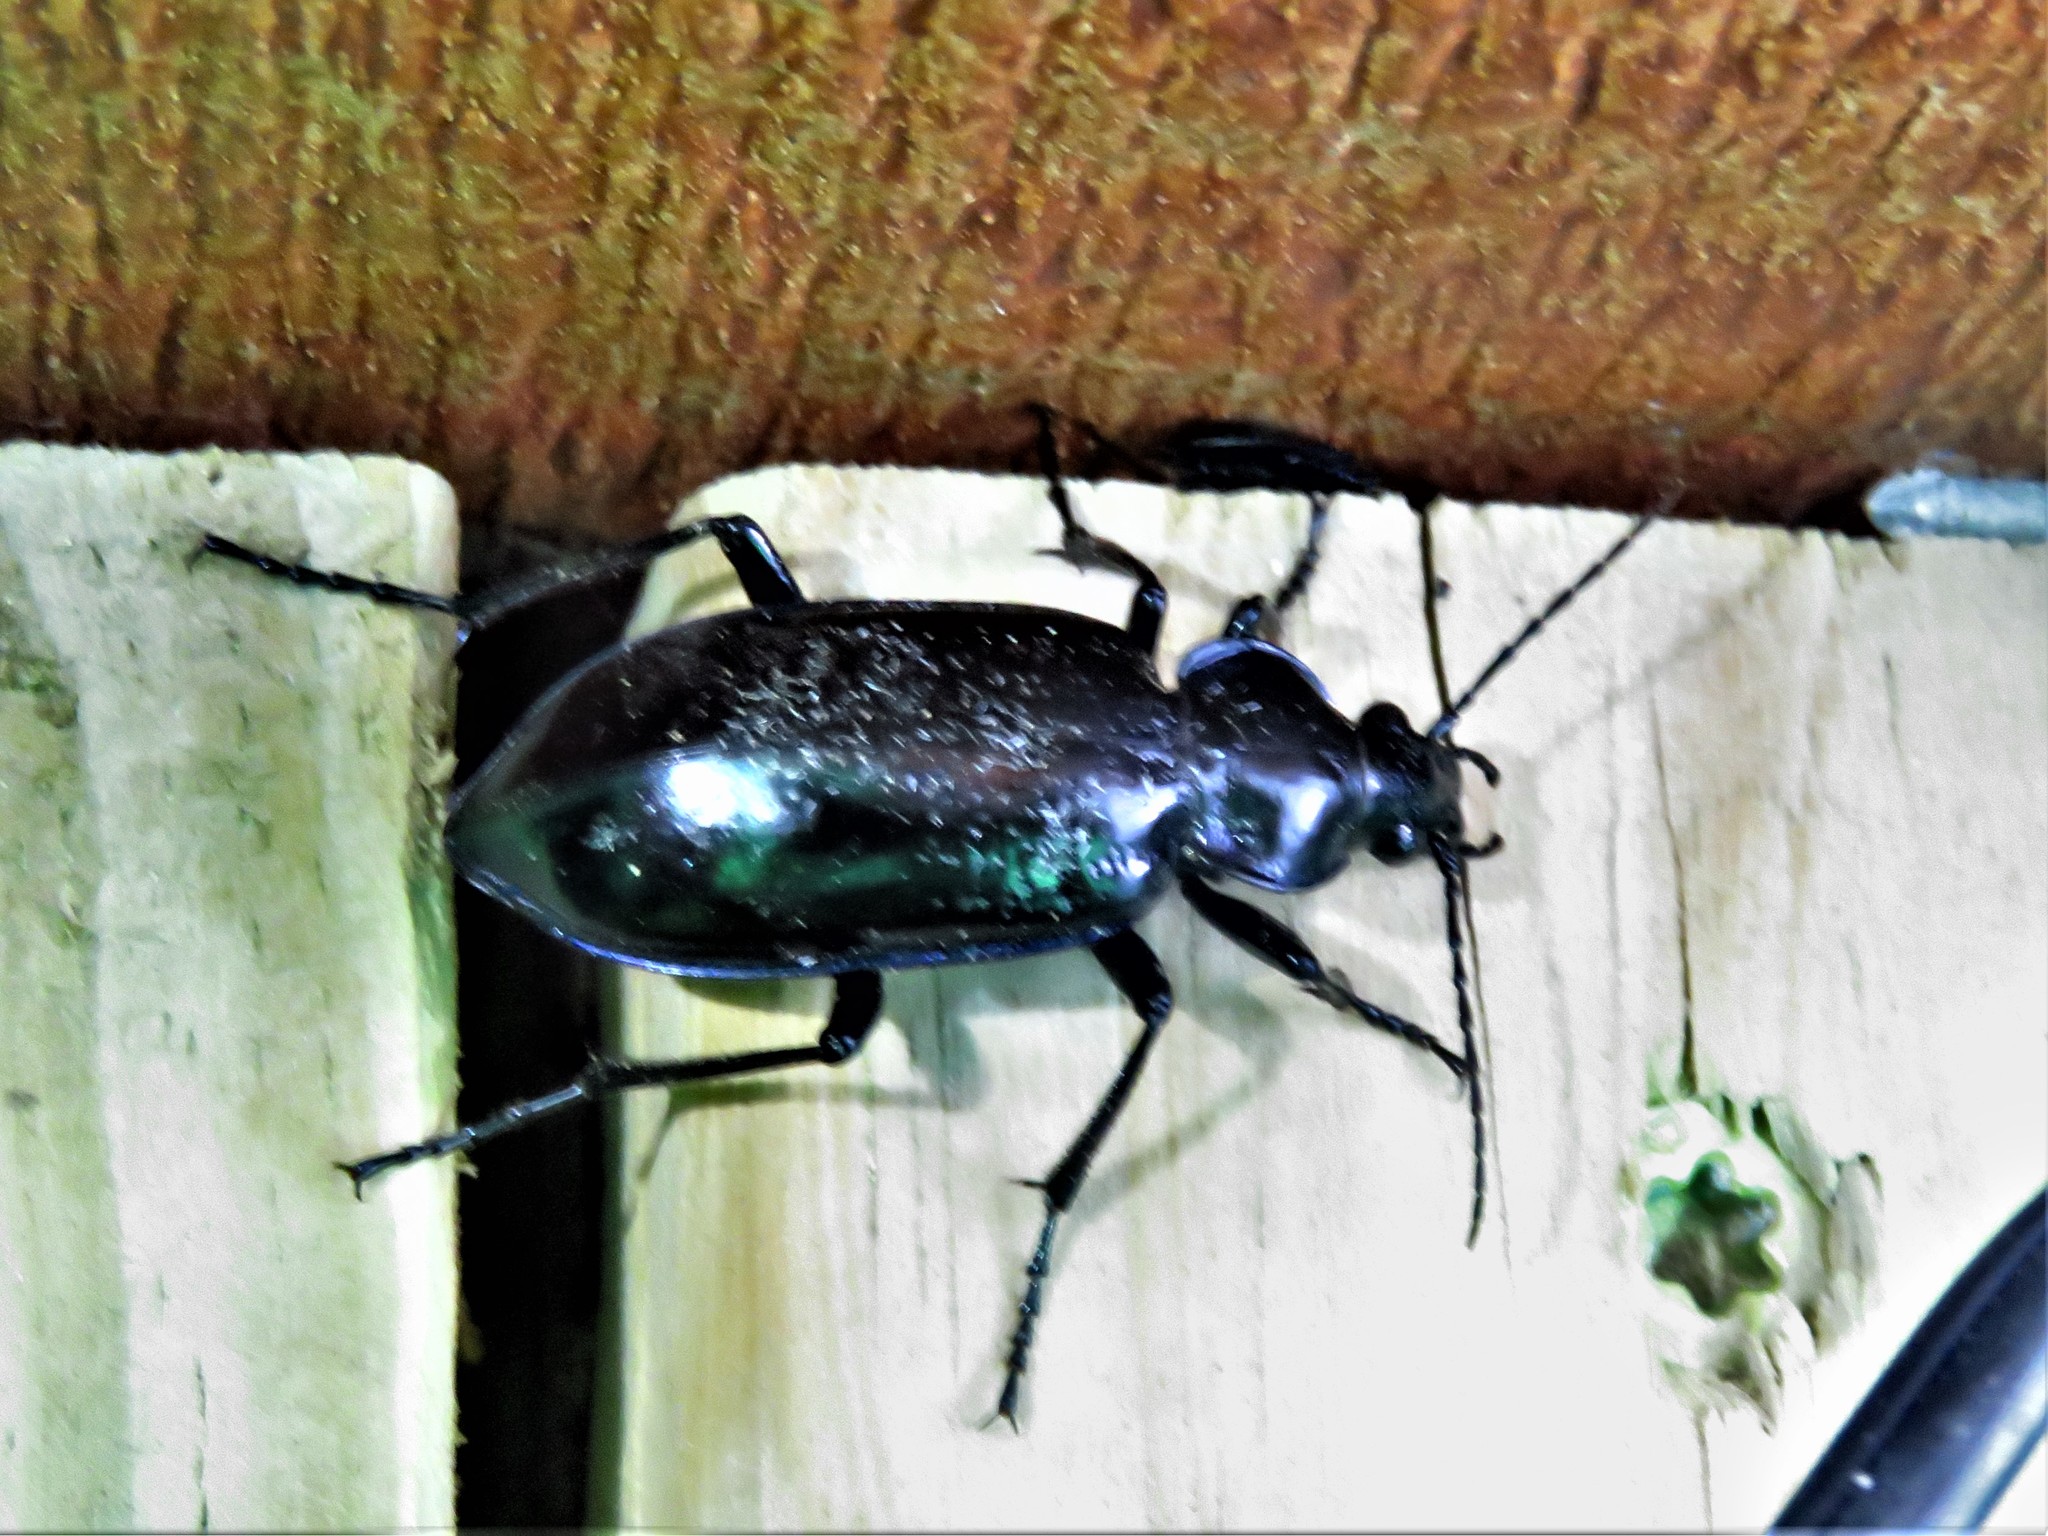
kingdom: Animalia
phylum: Arthropoda
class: Insecta
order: Coleoptera
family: Carabidae
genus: Calosoma
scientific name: Calosoma macrum
